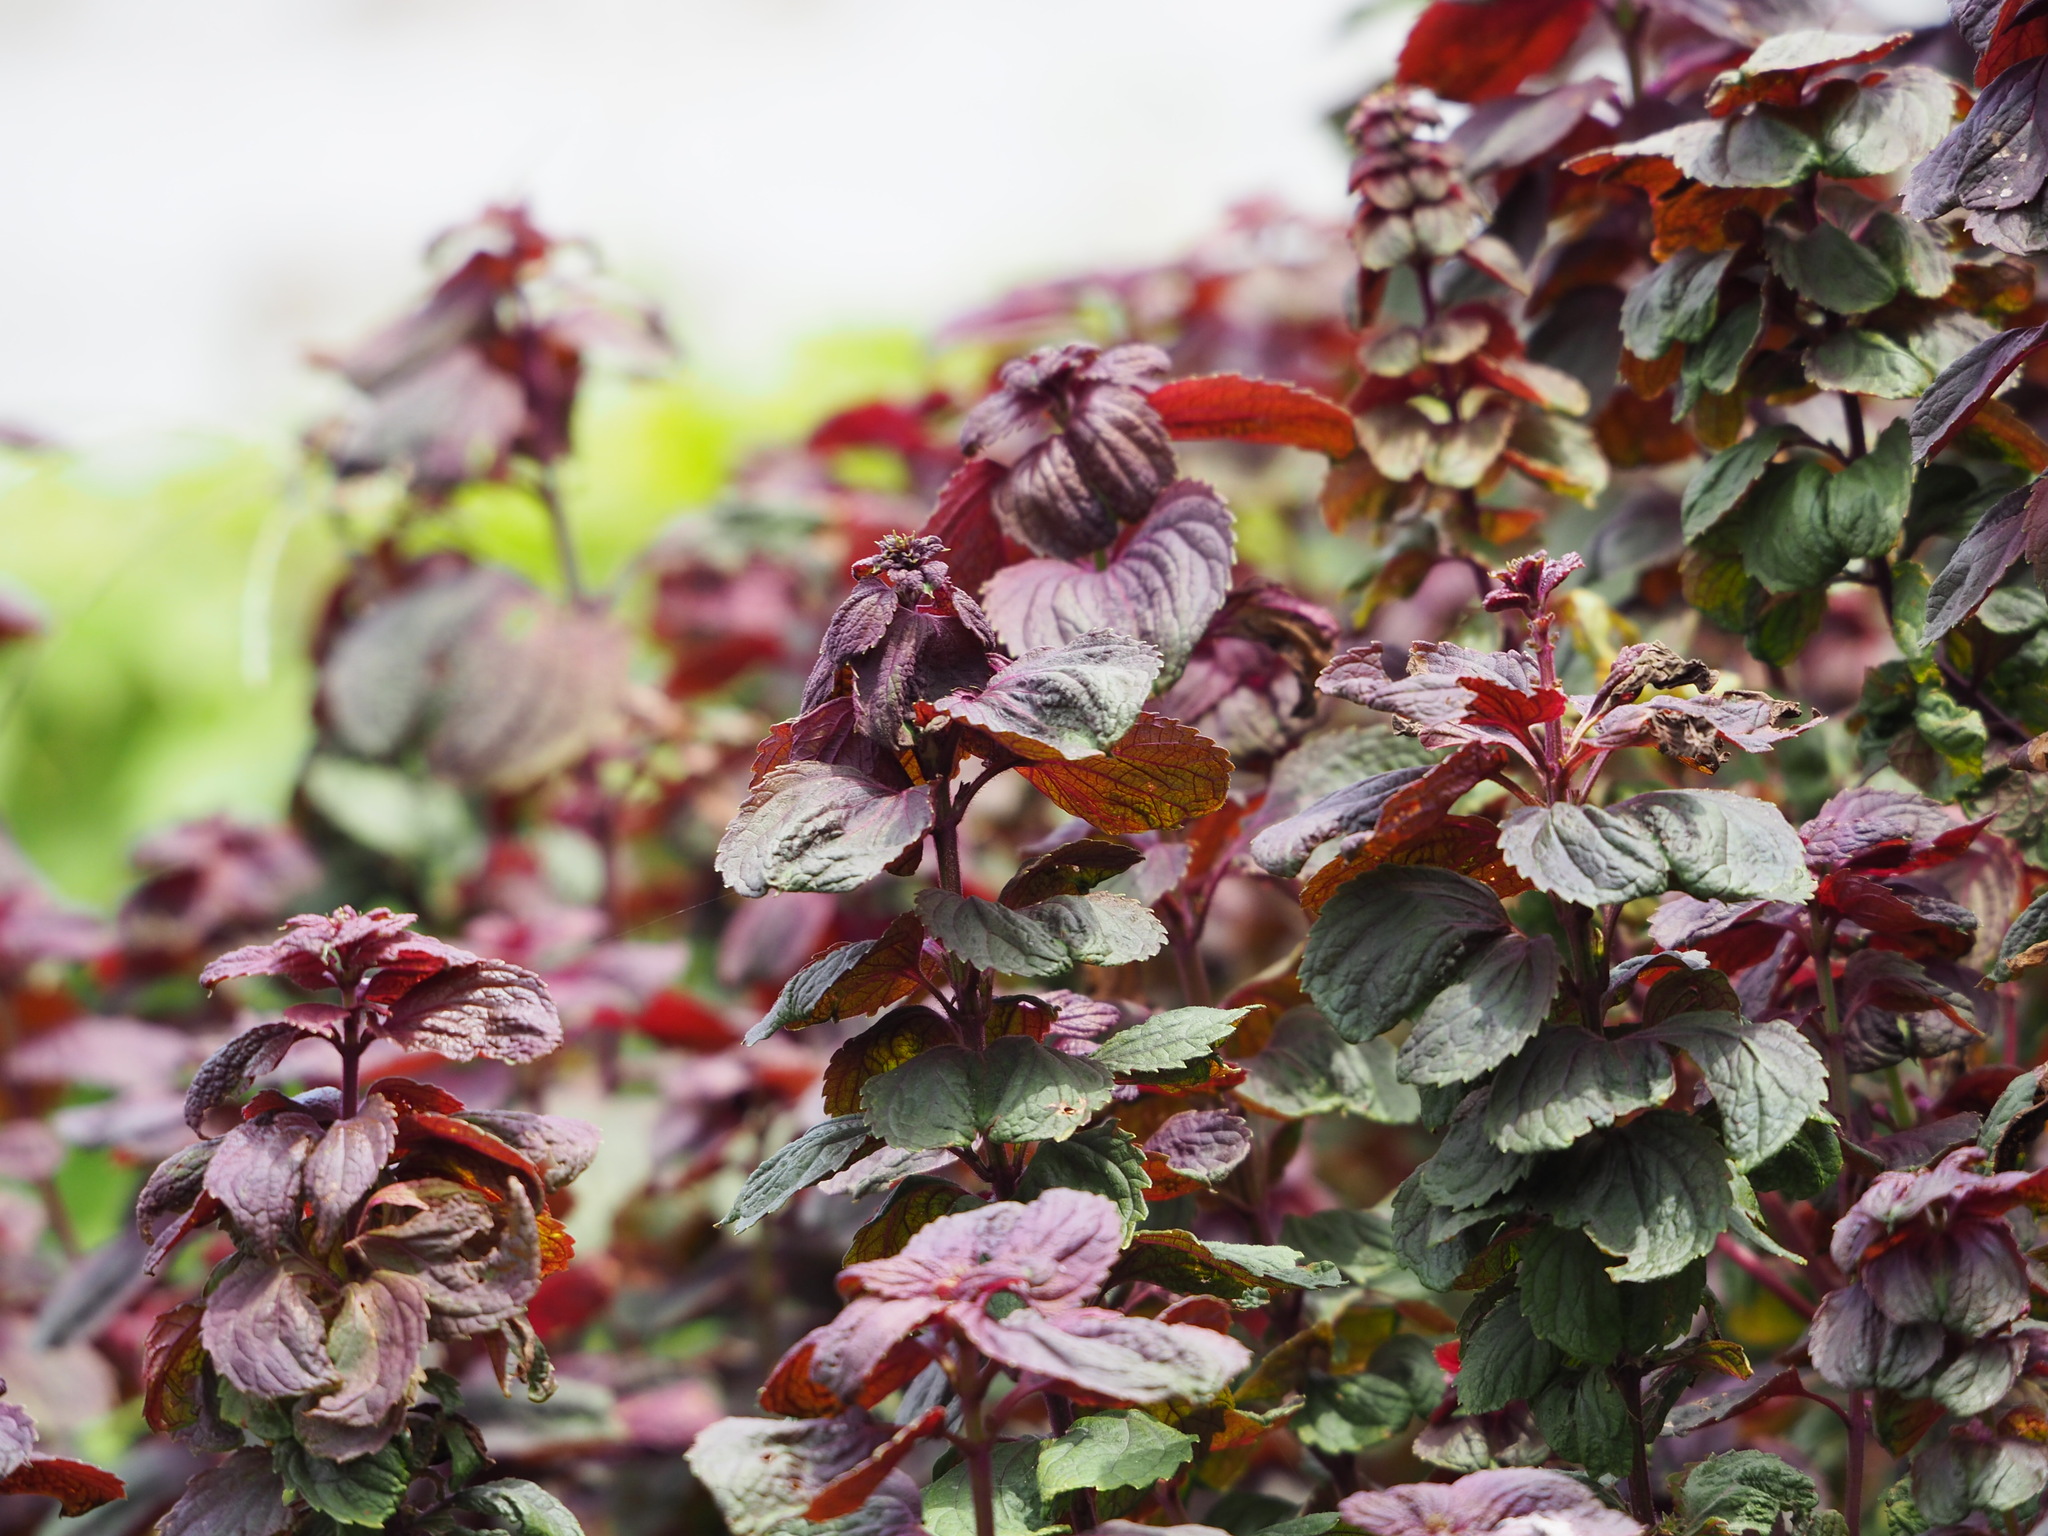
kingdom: Plantae
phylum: Tracheophyta
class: Magnoliopsida
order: Lamiales
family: Lamiaceae
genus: Perilla
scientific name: Perilla frutescens
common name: Perilla
